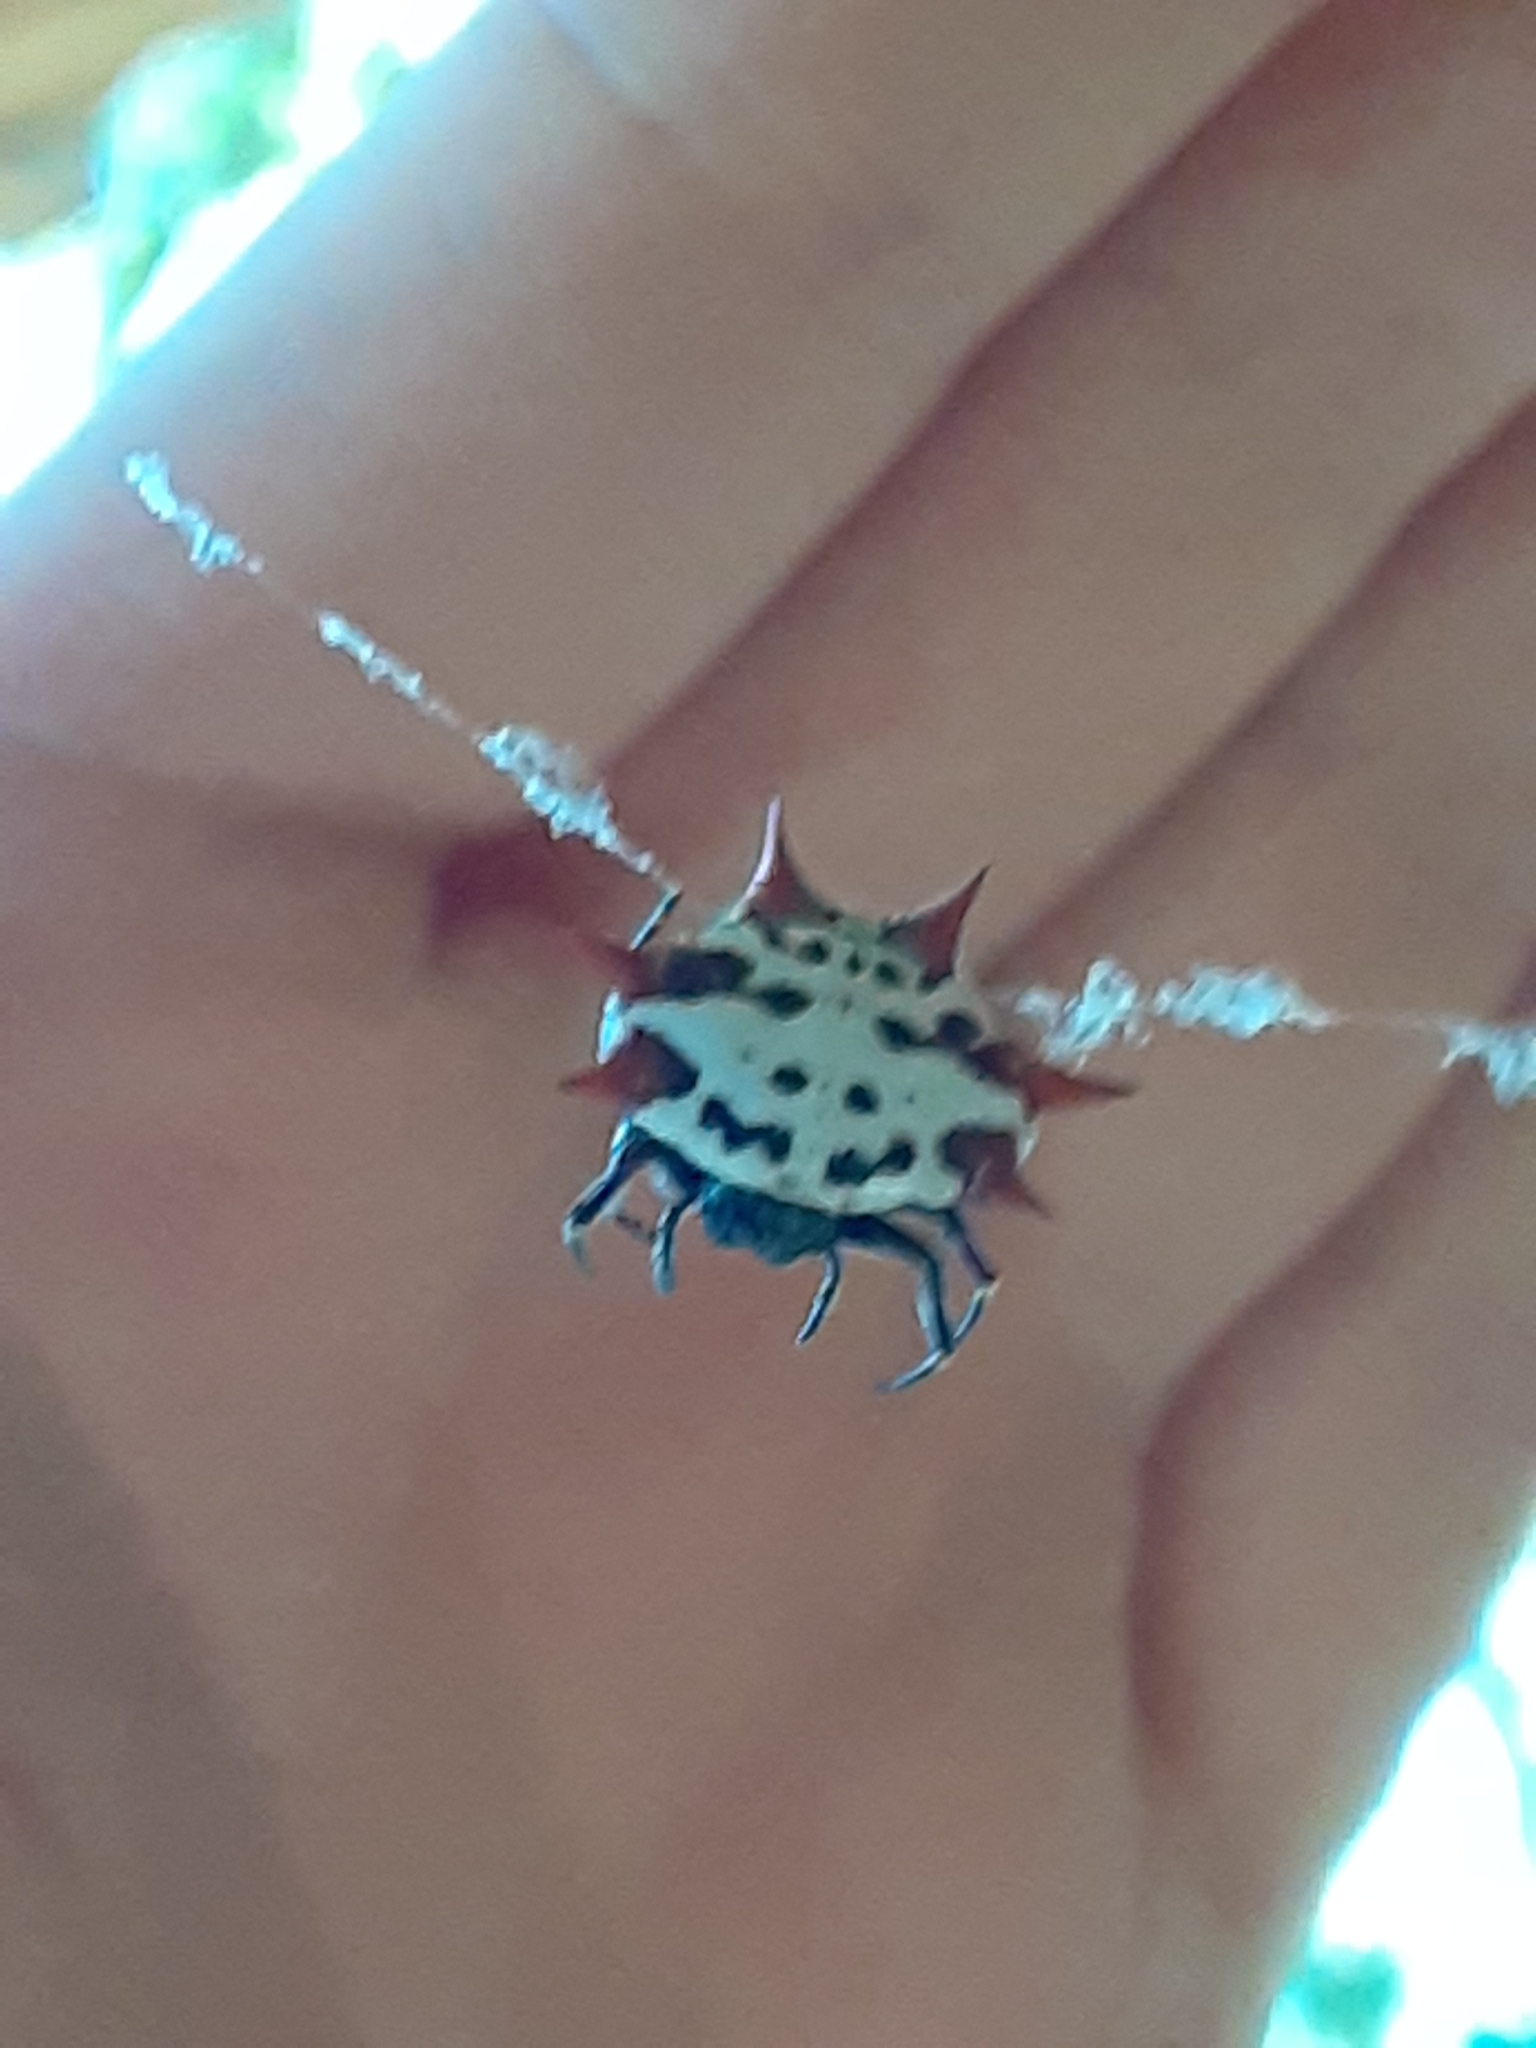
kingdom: Animalia
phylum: Arthropoda
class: Arachnida
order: Araneae
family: Araneidae
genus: Gasteracantha
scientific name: Gasteracantha cancriformis
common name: Orb weavers
